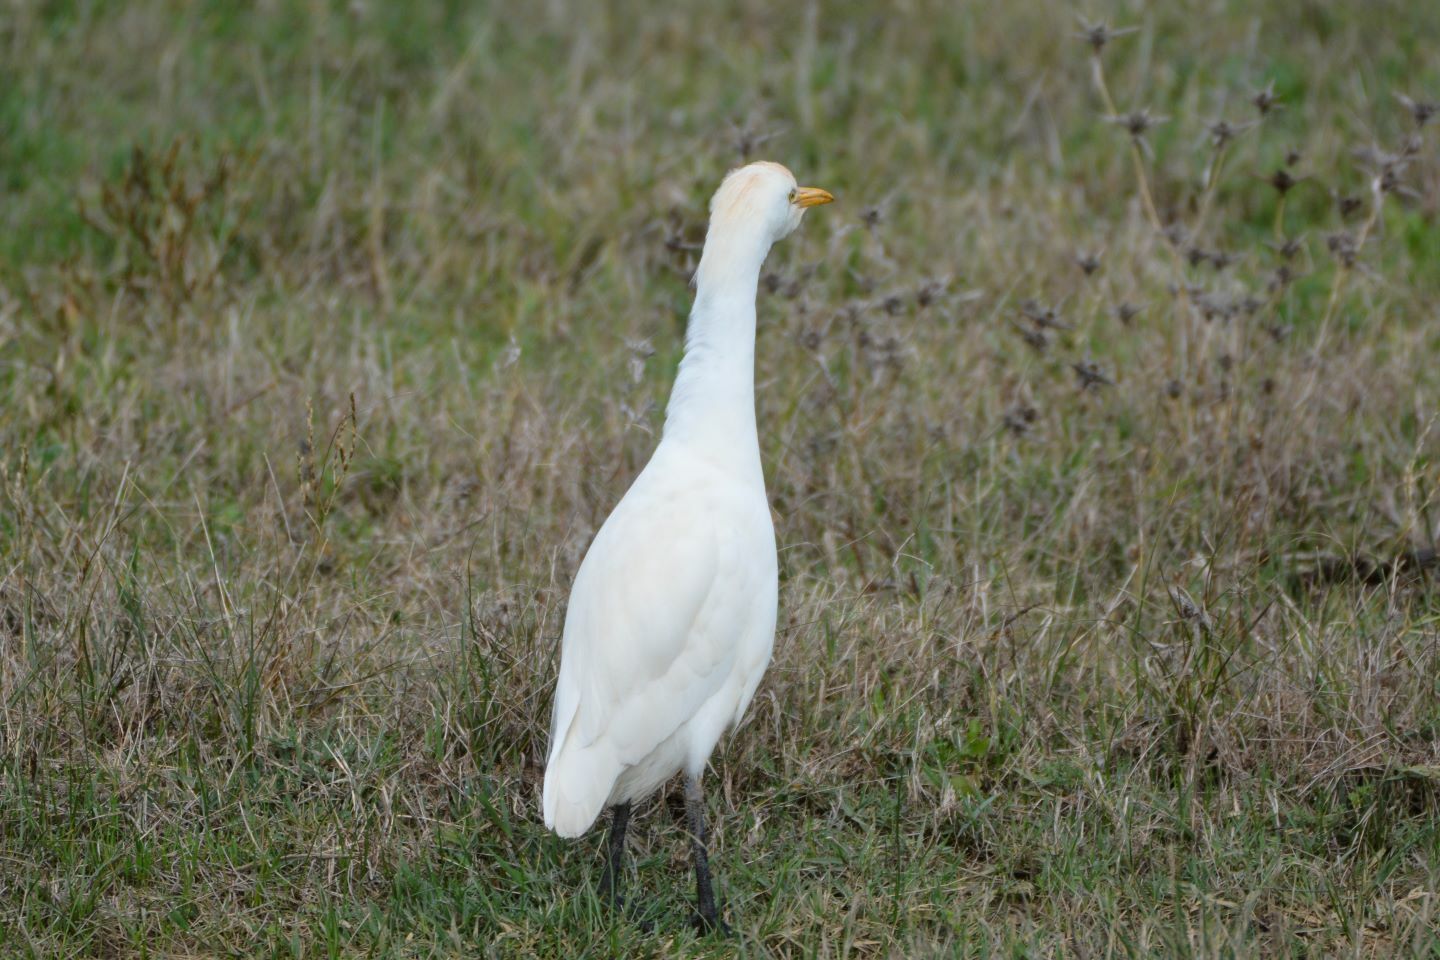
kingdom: Animalia
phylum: Chordata
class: Aves
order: Pelecaniformes
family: Ardeidae
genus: Bubulcus
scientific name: Bubulcus ibis
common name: Cattle egret
